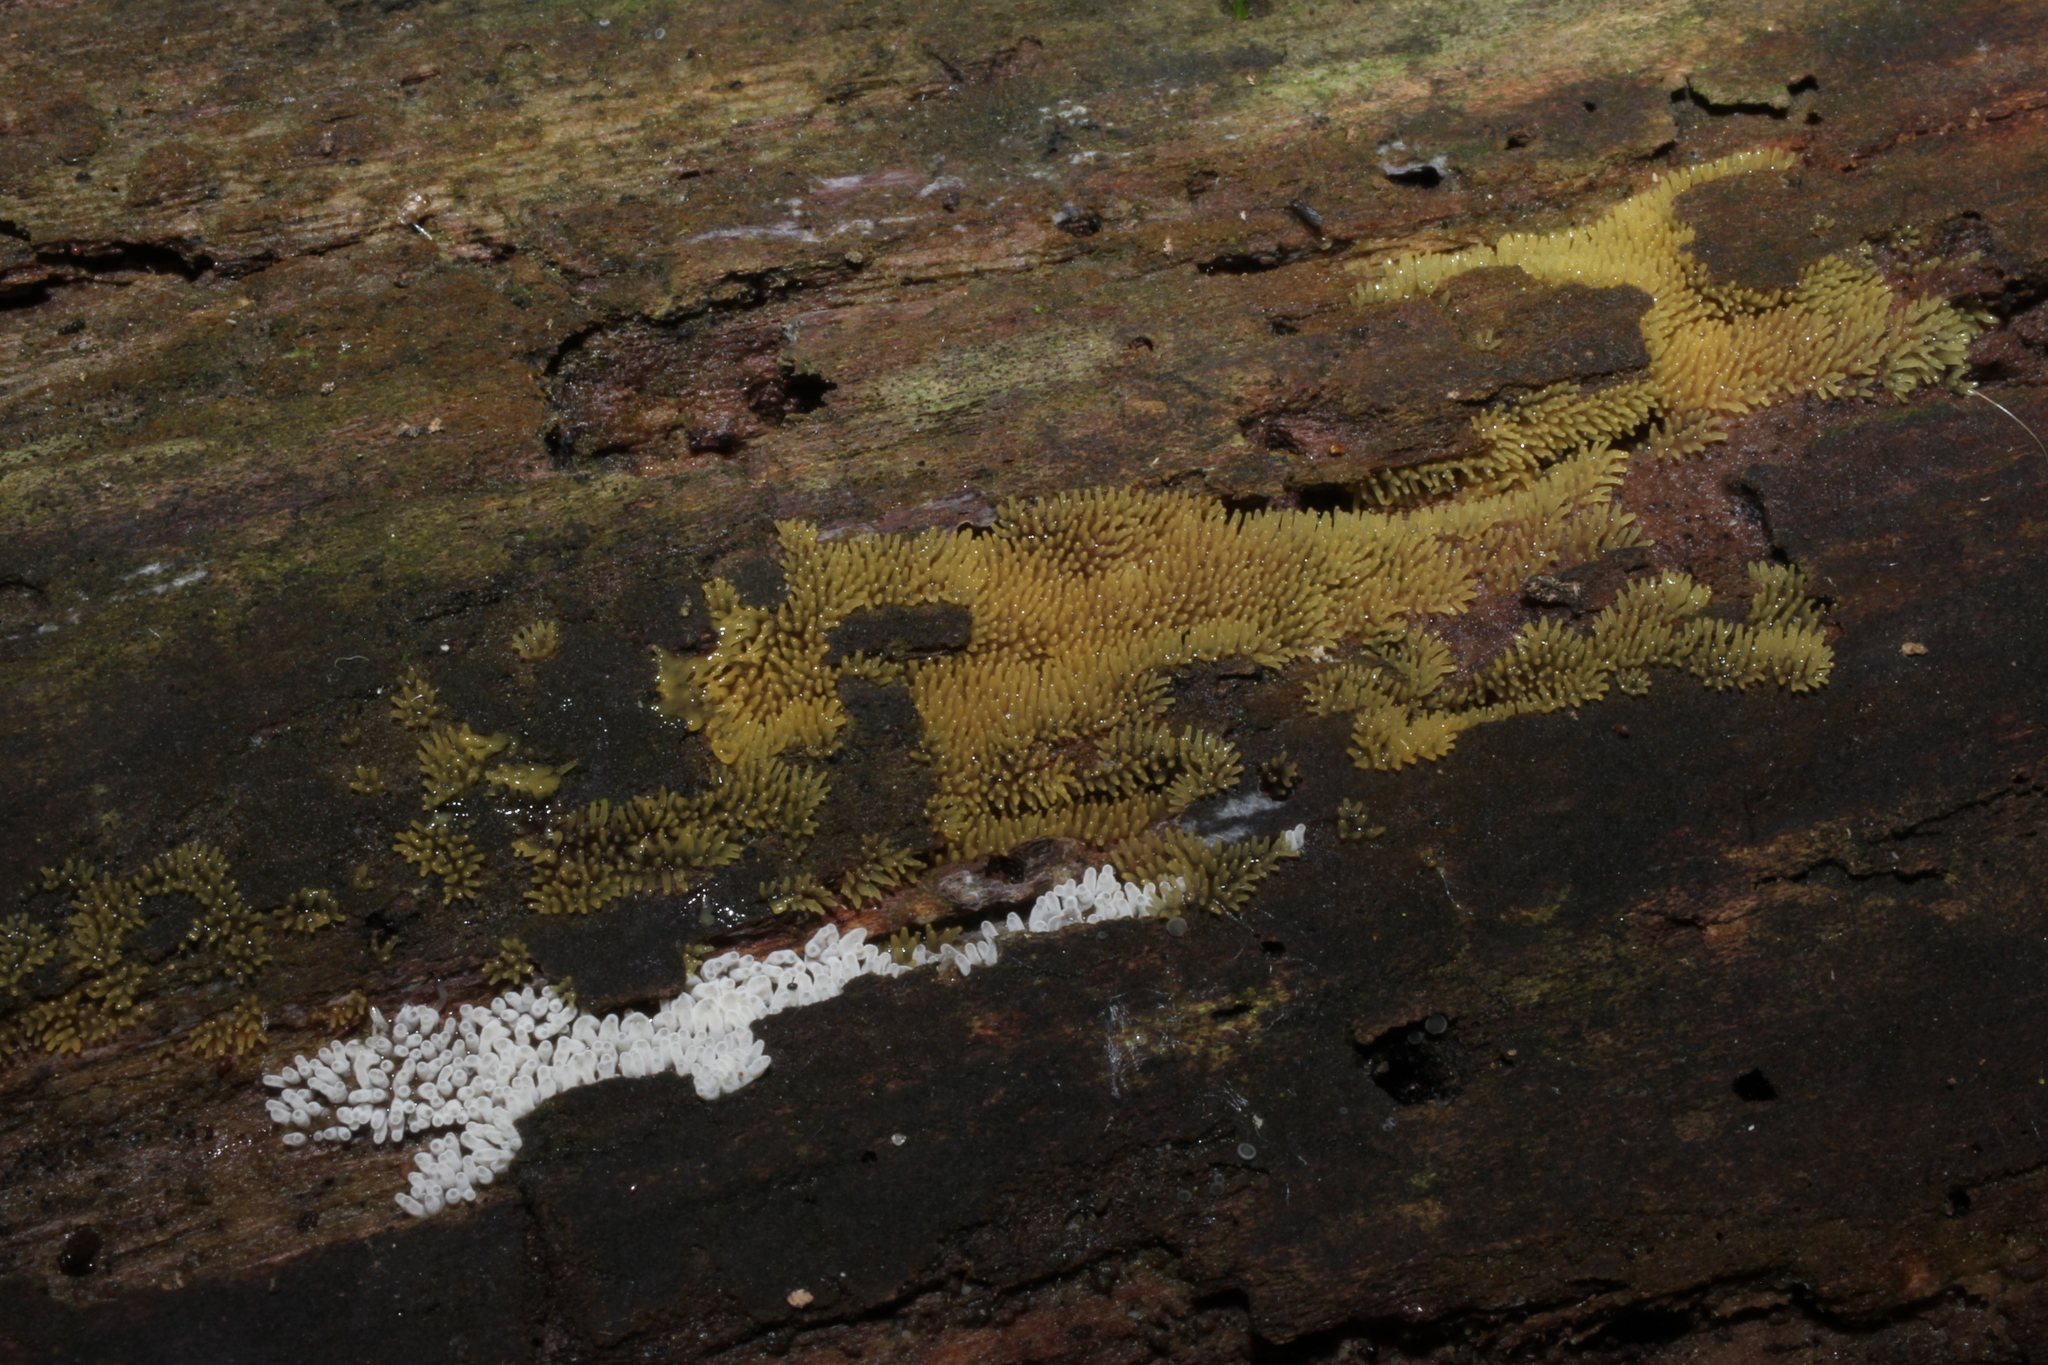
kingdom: Protozoa
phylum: Mycetozoa
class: Protosteliomycetes
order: Ceratiomyxales
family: Ceratiomyxaceae
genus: Ceratiomyxa
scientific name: Ceratiomyxa fruticulosa
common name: Honeycomb coral slime mold
